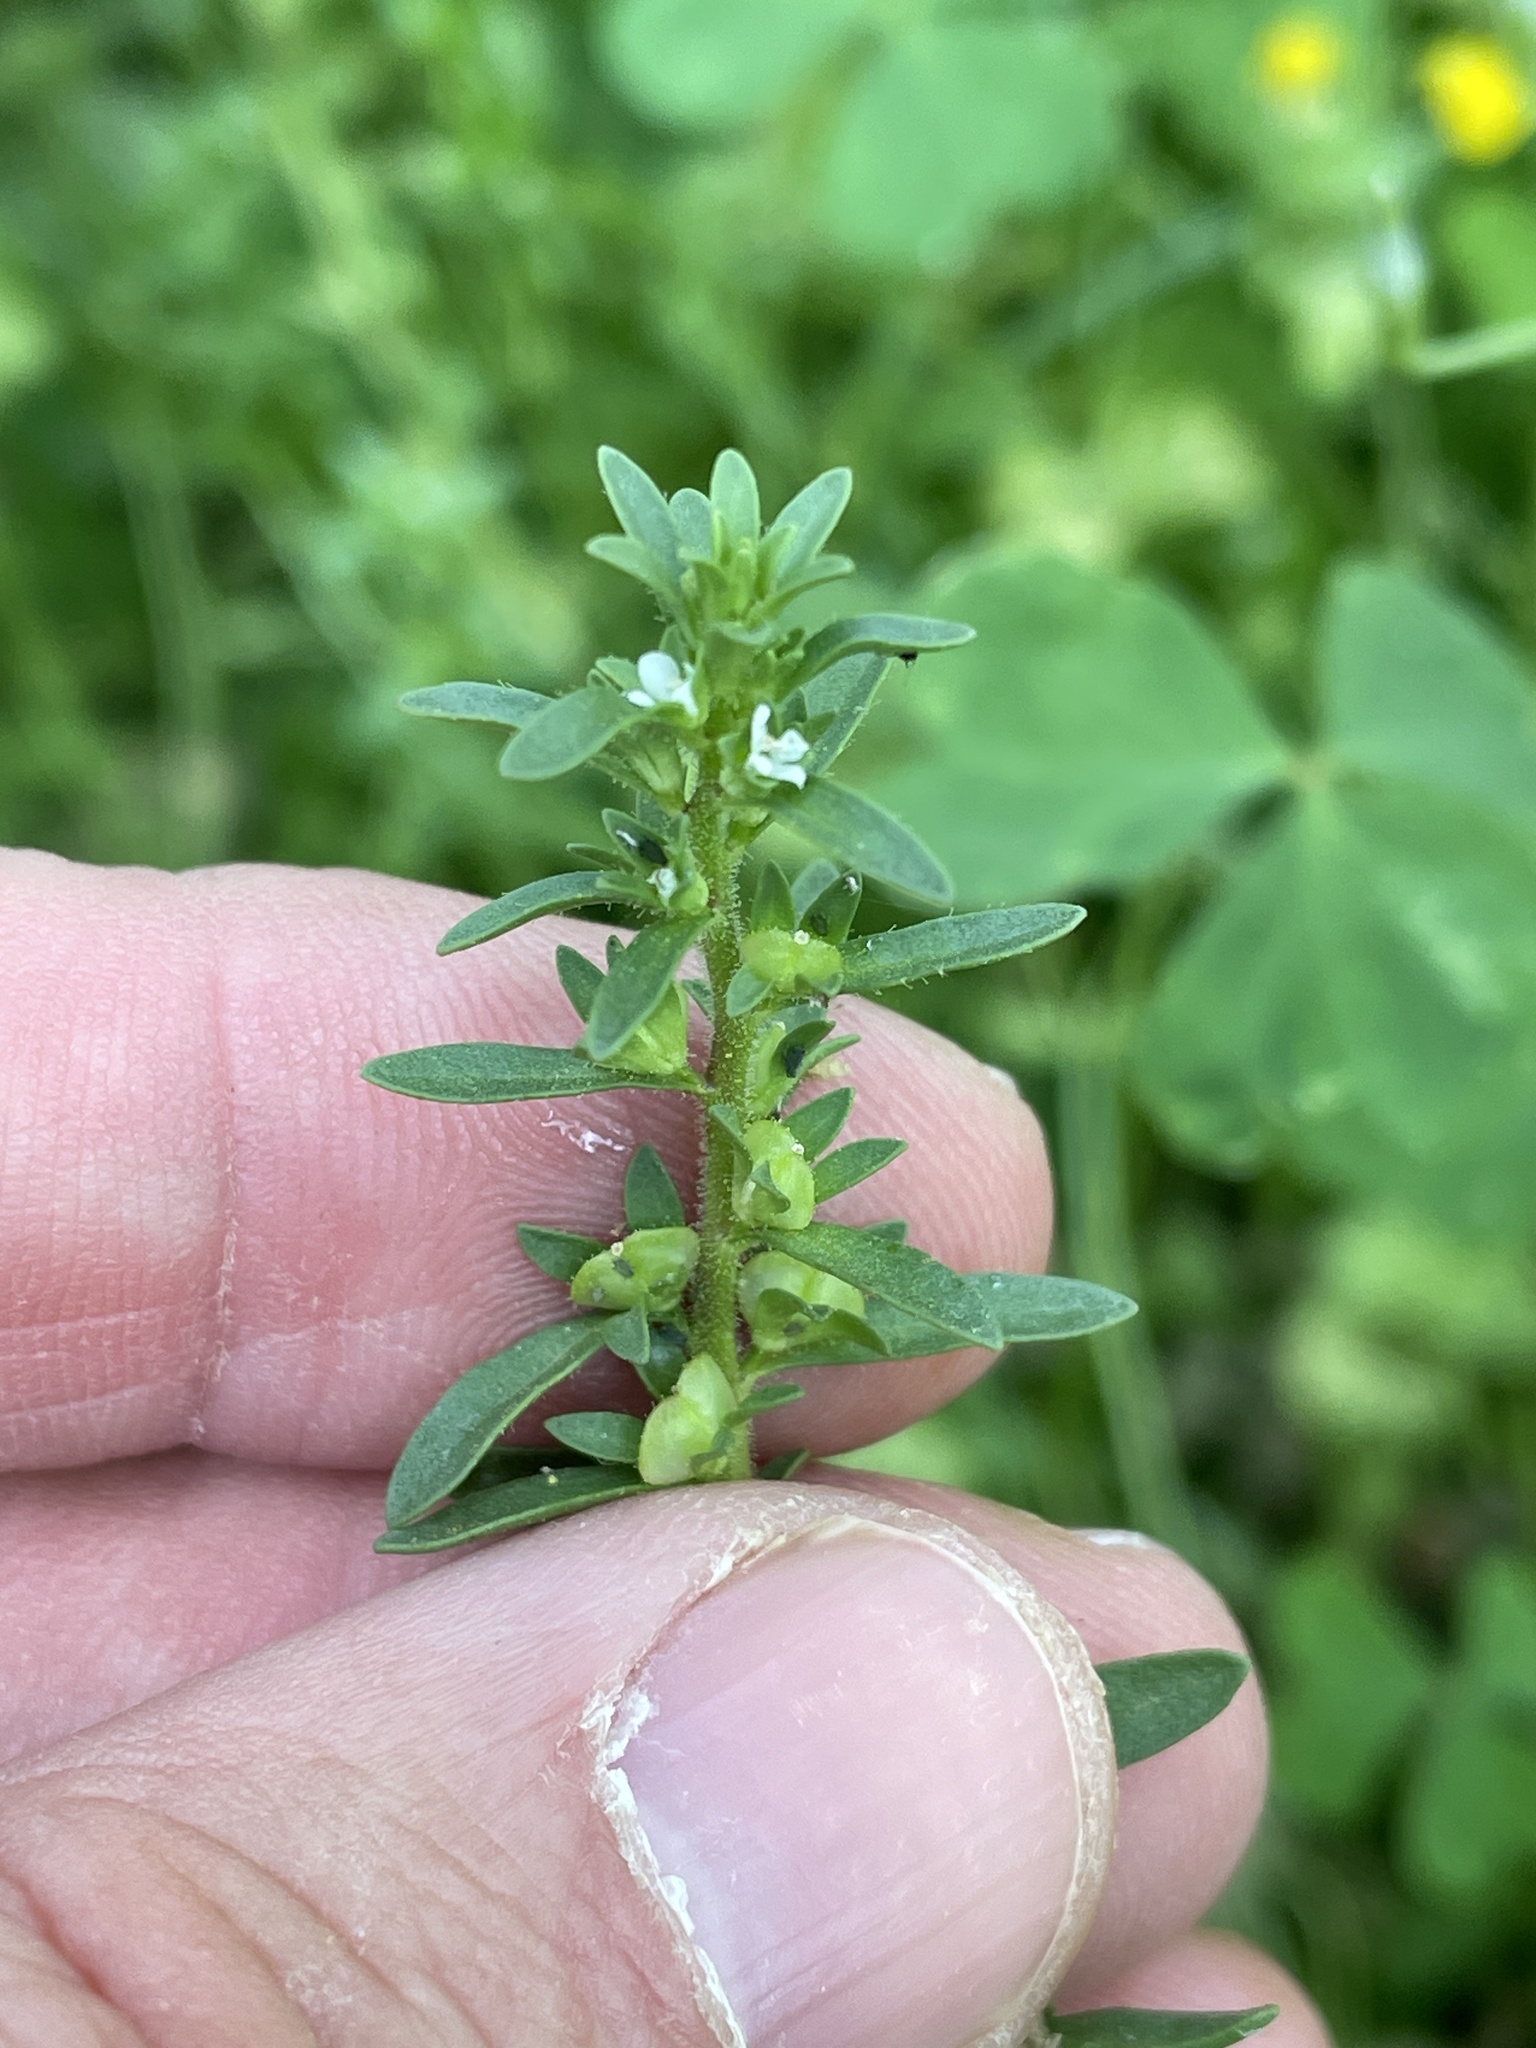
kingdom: Plantae
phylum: Tracheophyta
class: Magnoliopsida
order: Lamiales
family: Plantaginaceae
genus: Veronica
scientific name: Veronica peregrina
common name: Neckweed
